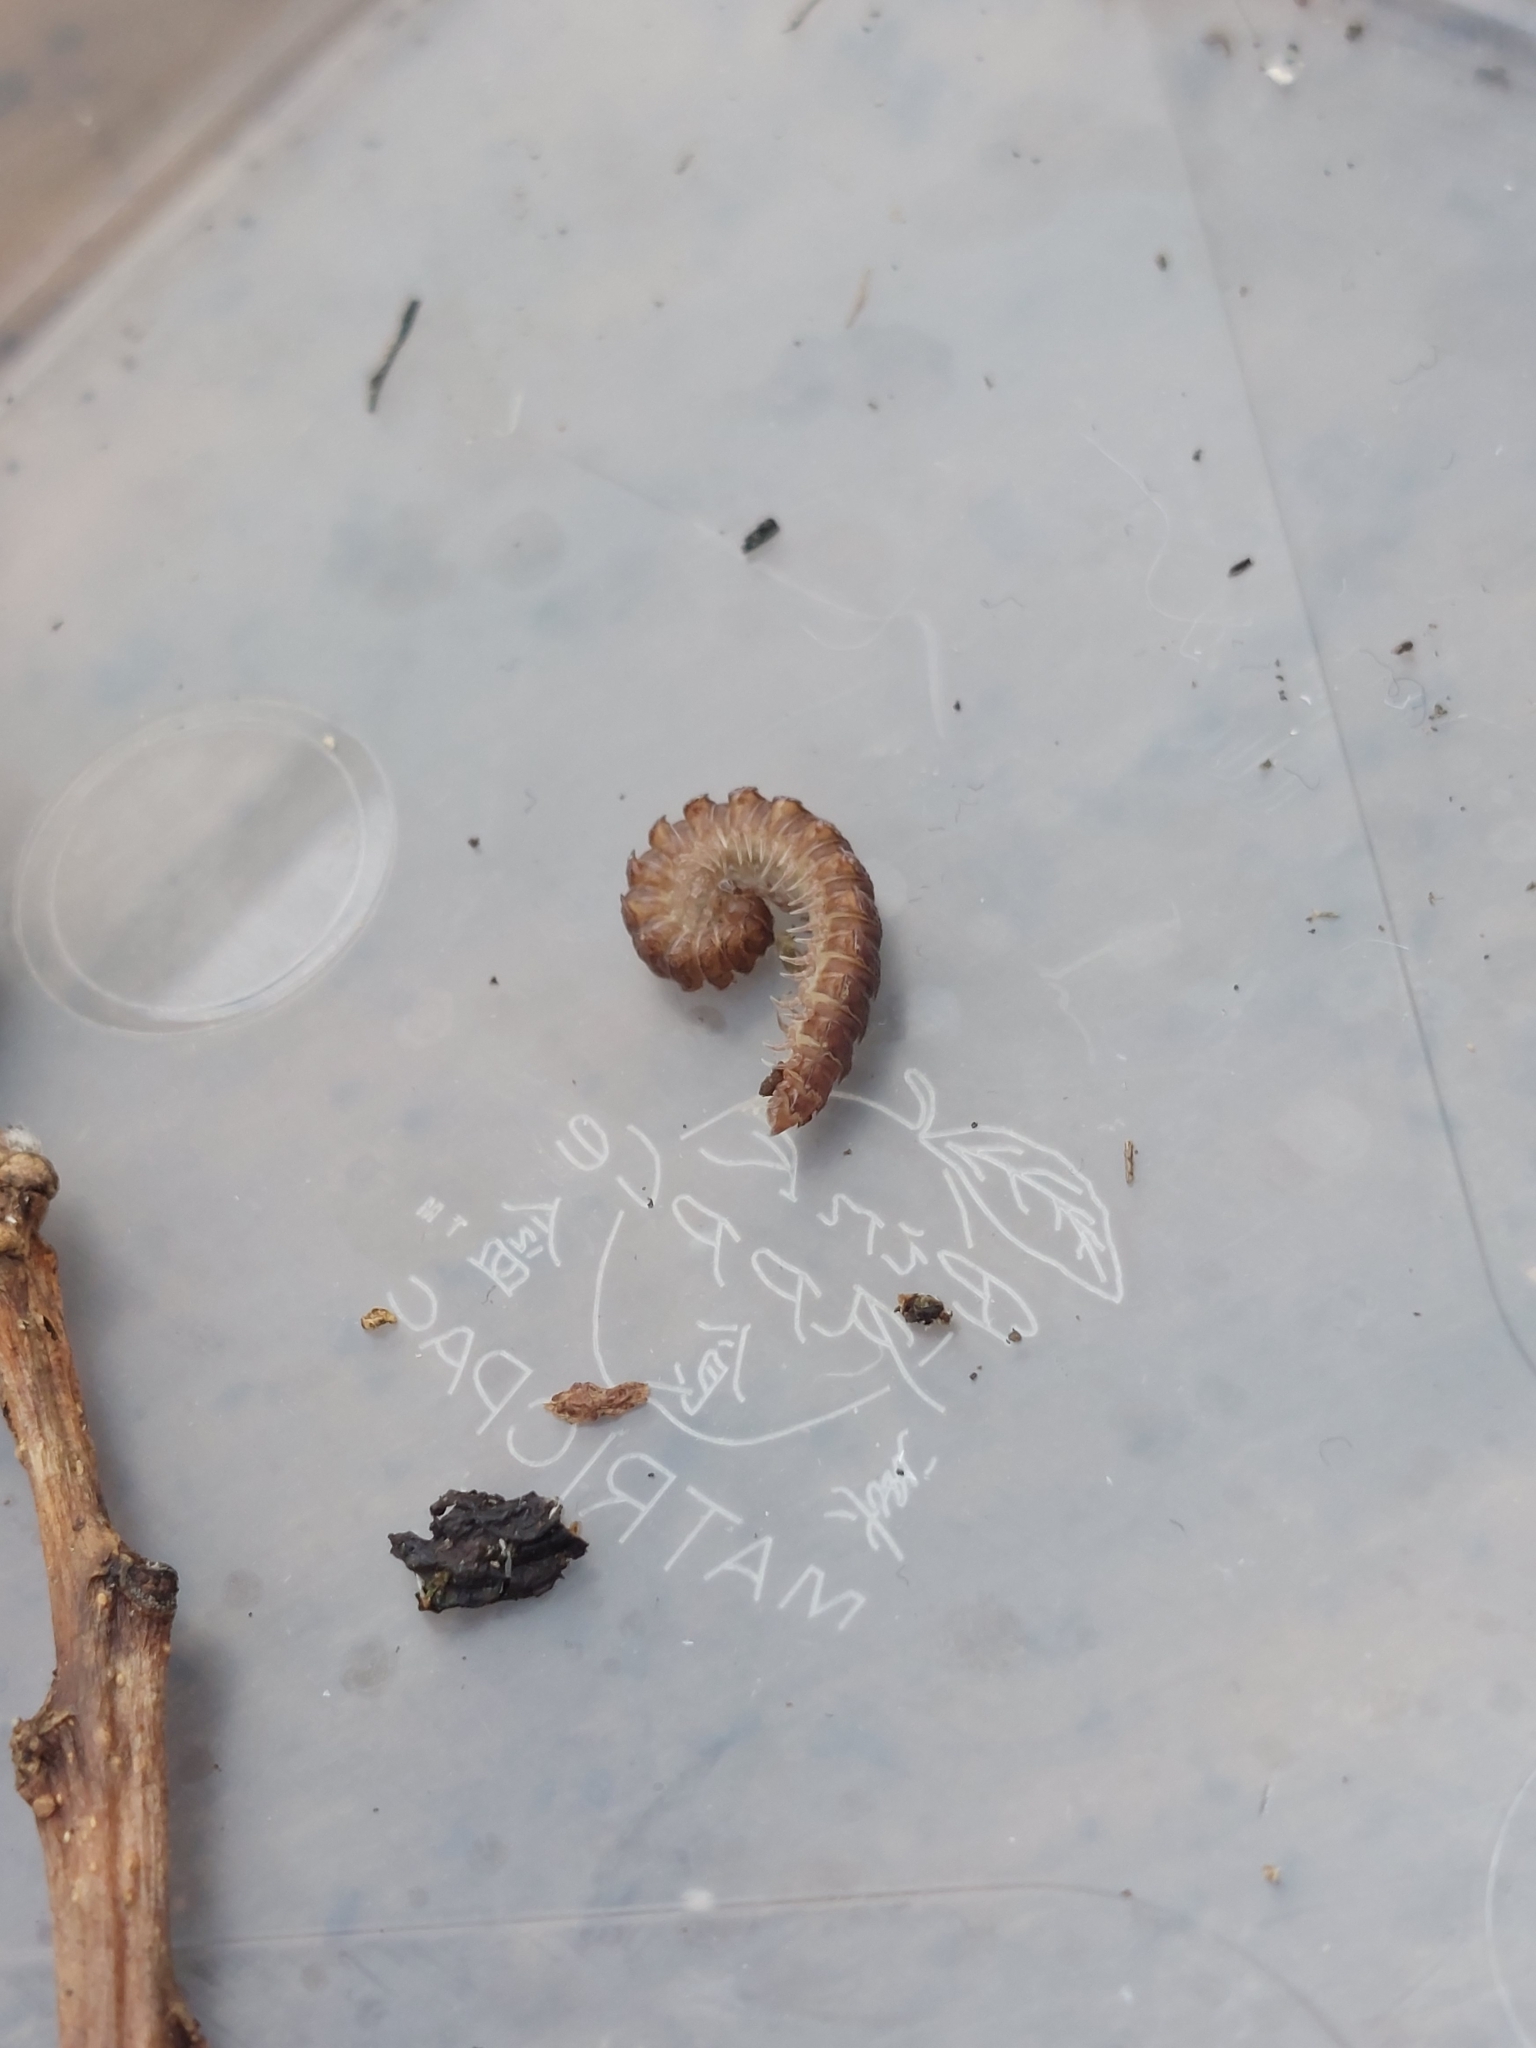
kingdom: Animalia
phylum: Arthropoda
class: Diplopoda
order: Polydesmida
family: Polydesmidae
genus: Polydesmus
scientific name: Polydesmus
